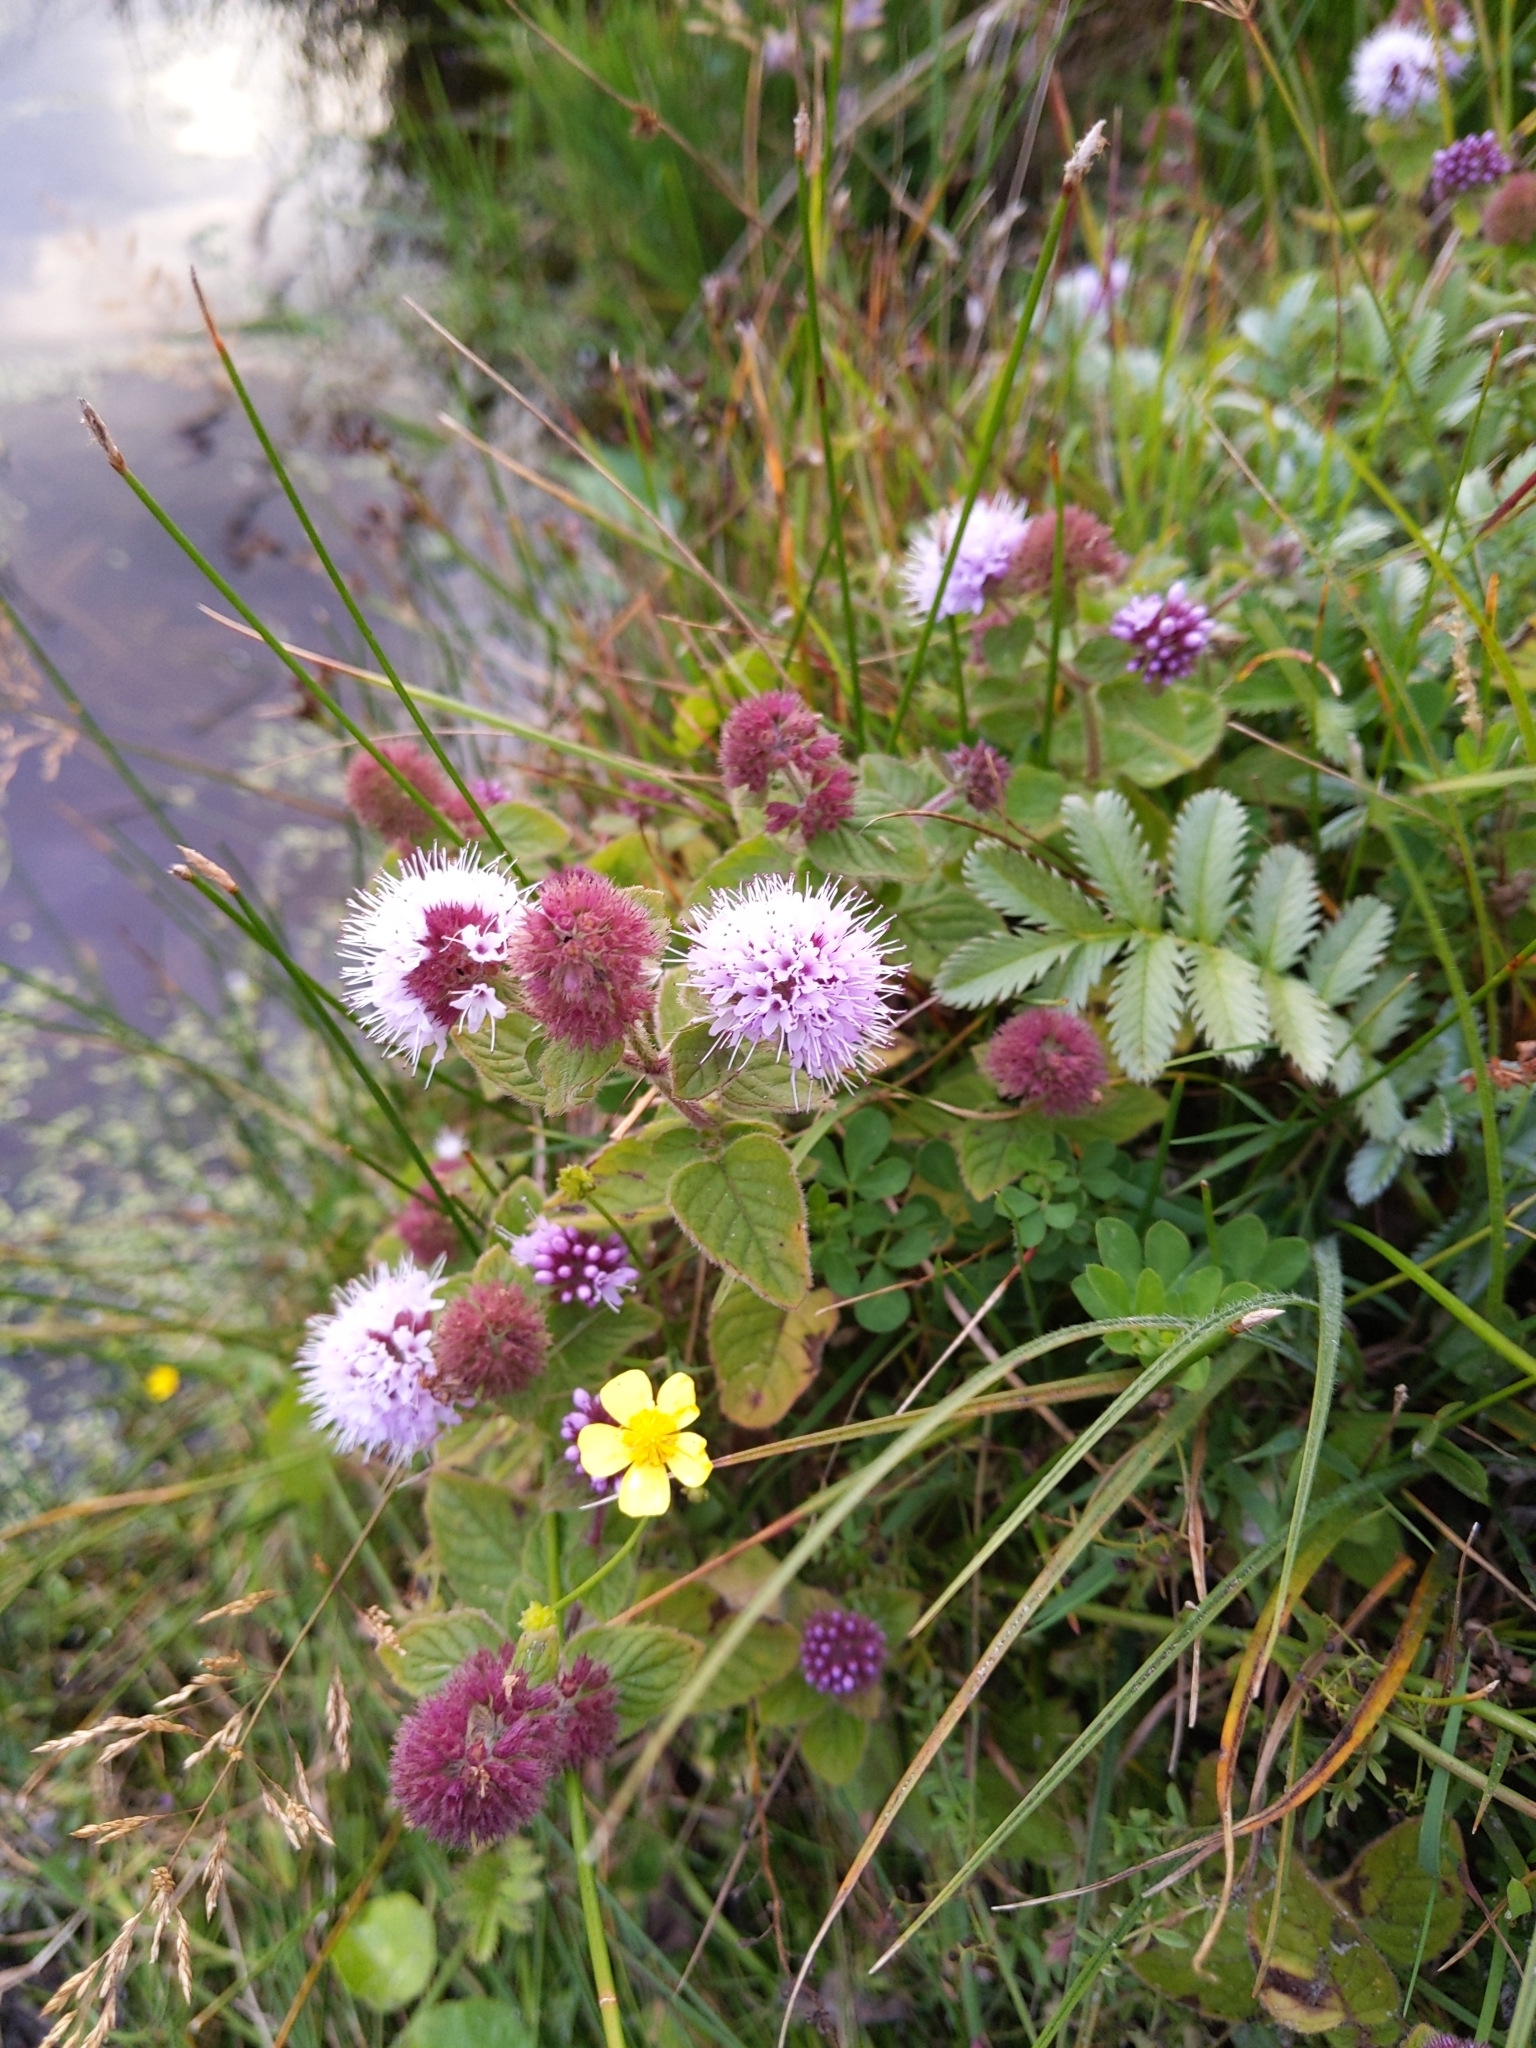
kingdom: Plantae
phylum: Tracheophyta
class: Magnoliopsida
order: Lamiales
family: Lamiaceae
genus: Mentha
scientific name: Mentha aquatica
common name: Water mint
